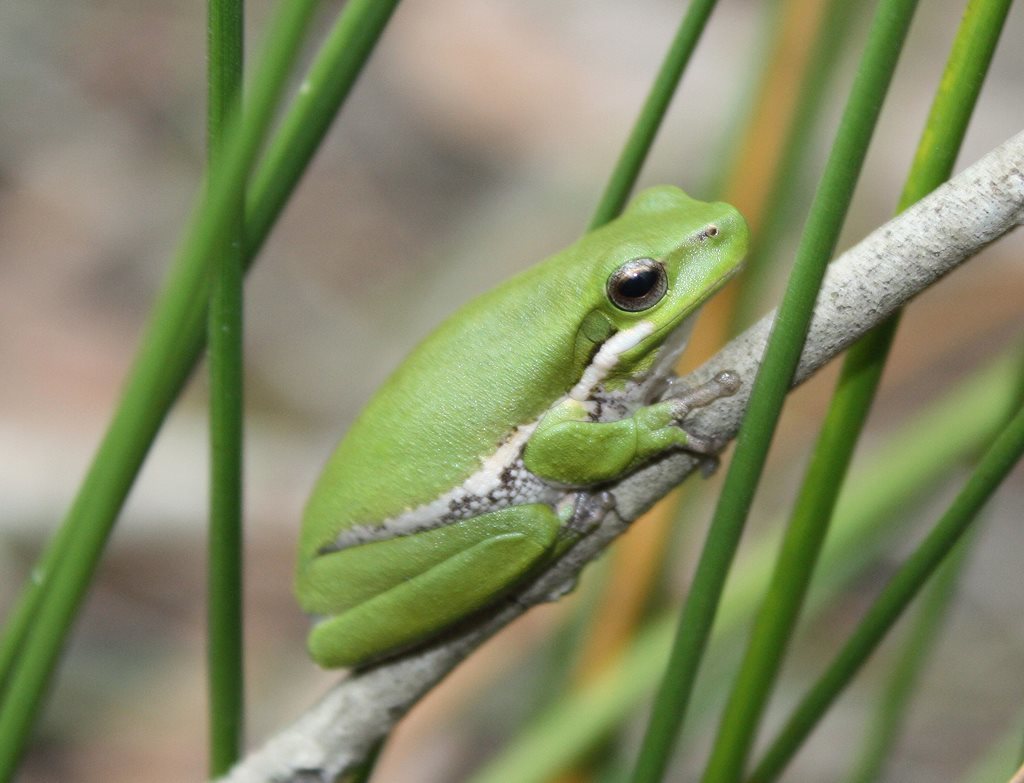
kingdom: Animalia
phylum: Chordata
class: Amphibia
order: Anura
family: Pelodryadidae
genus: Litoria
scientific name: Litoria fallax
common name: Eastern dwarf treefrog
